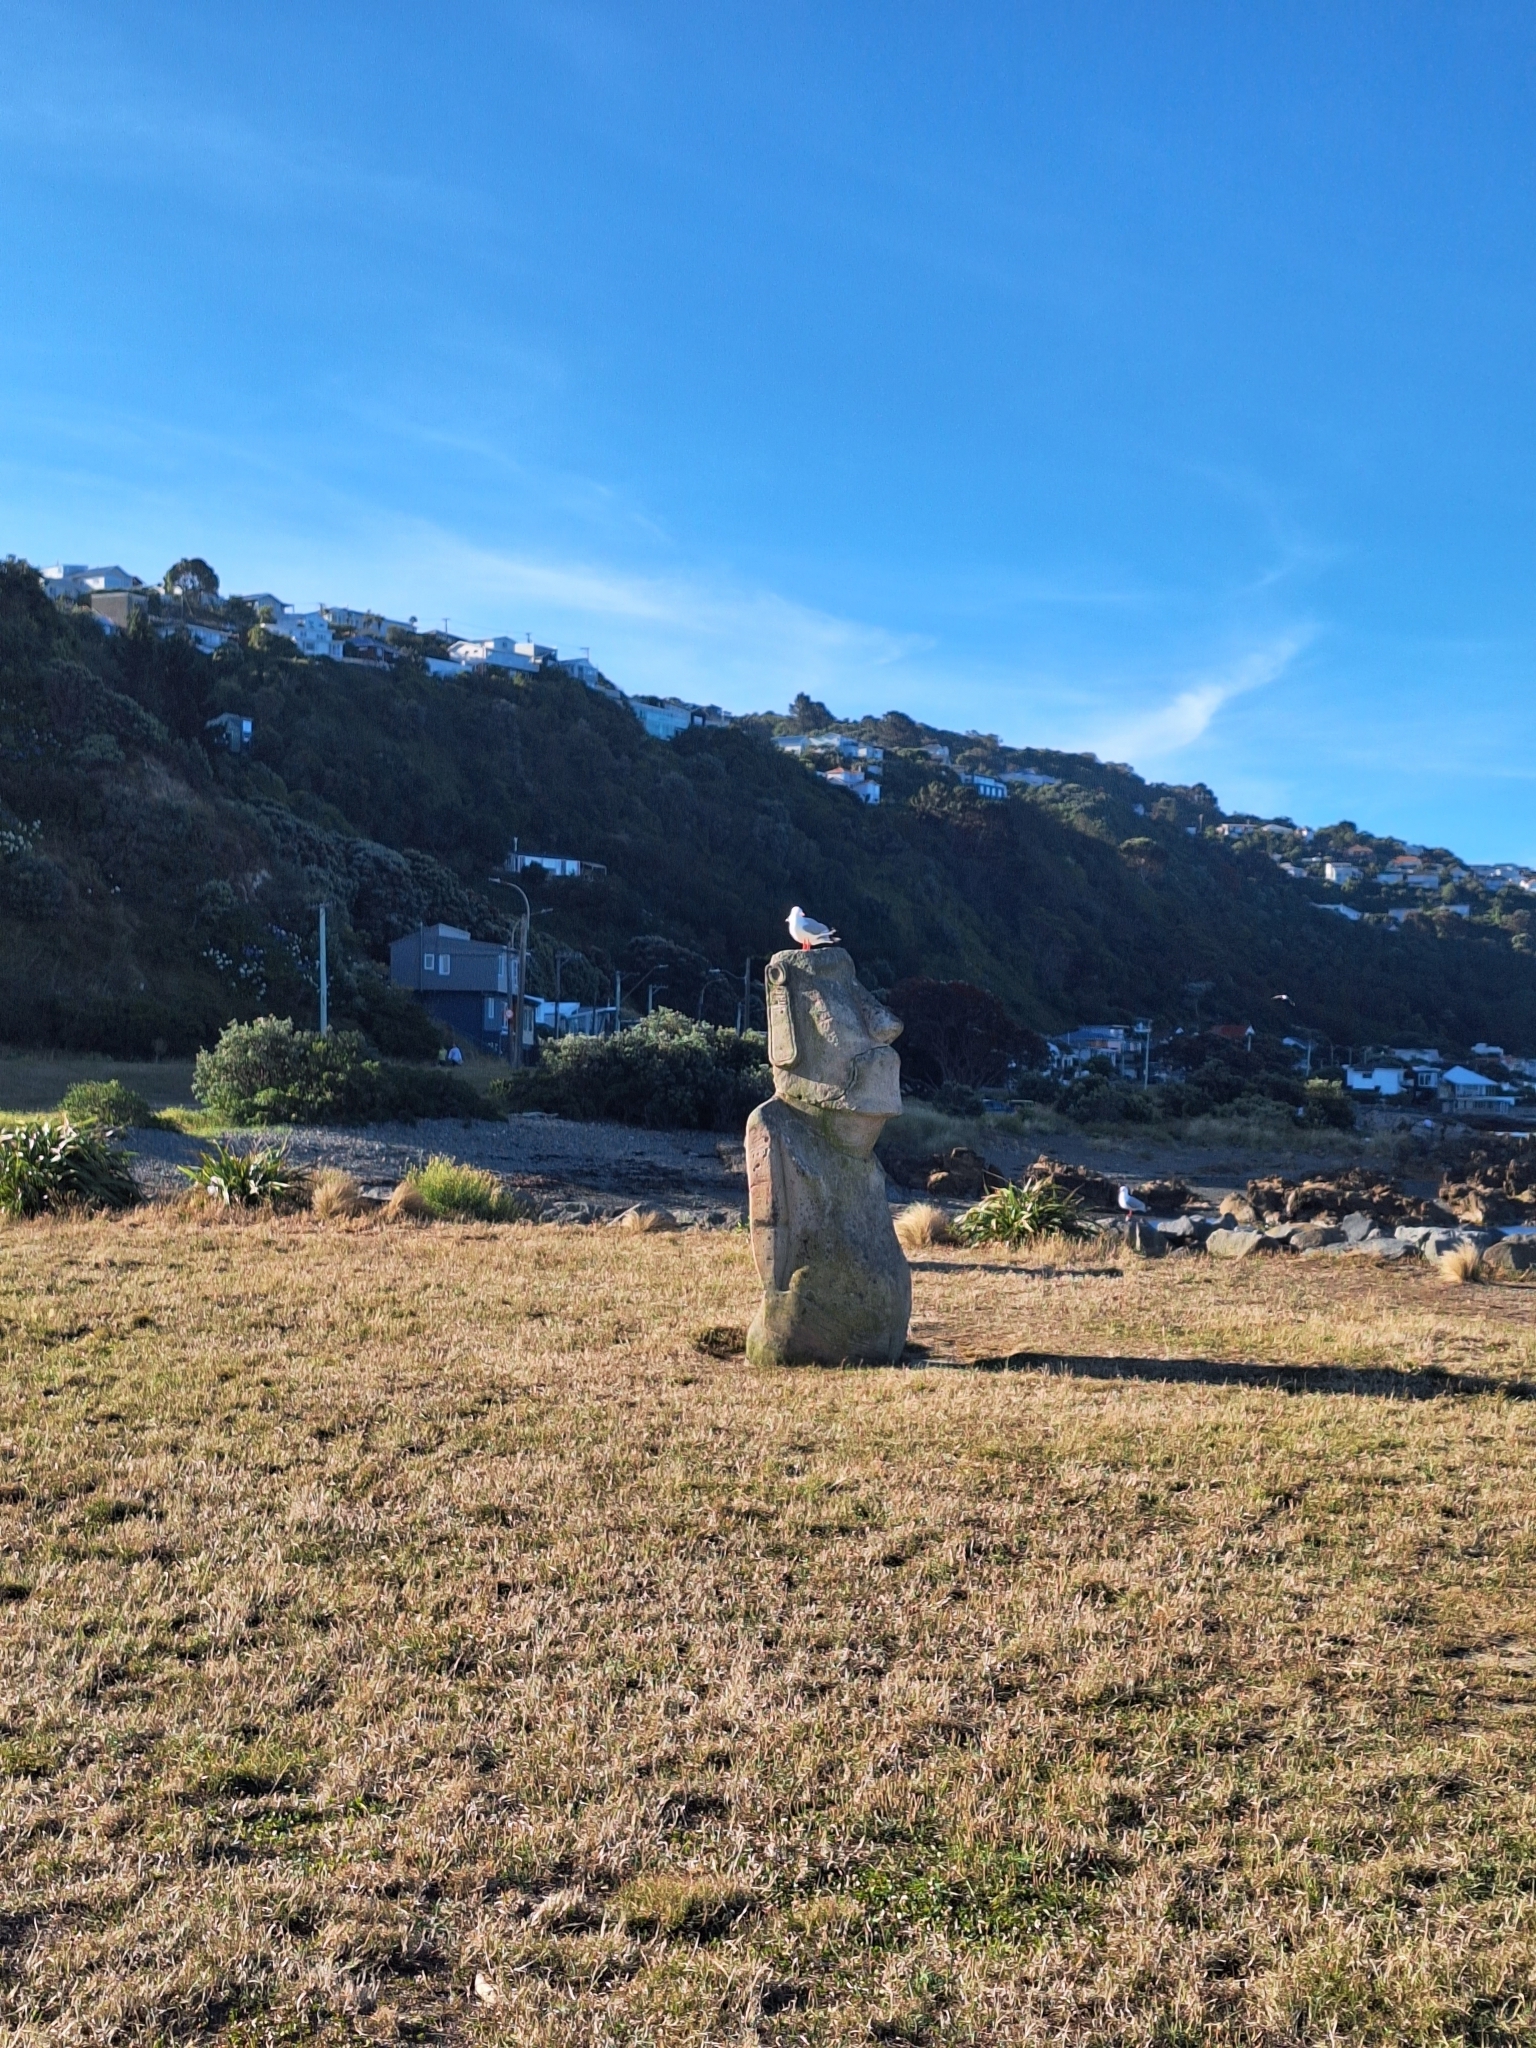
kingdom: Animalia
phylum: Chordata
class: Aves
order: Charadriiformes
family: Laridae
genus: Chroicocephalus
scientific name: Chroicocephalus novaehollandiae
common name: Silver gull
